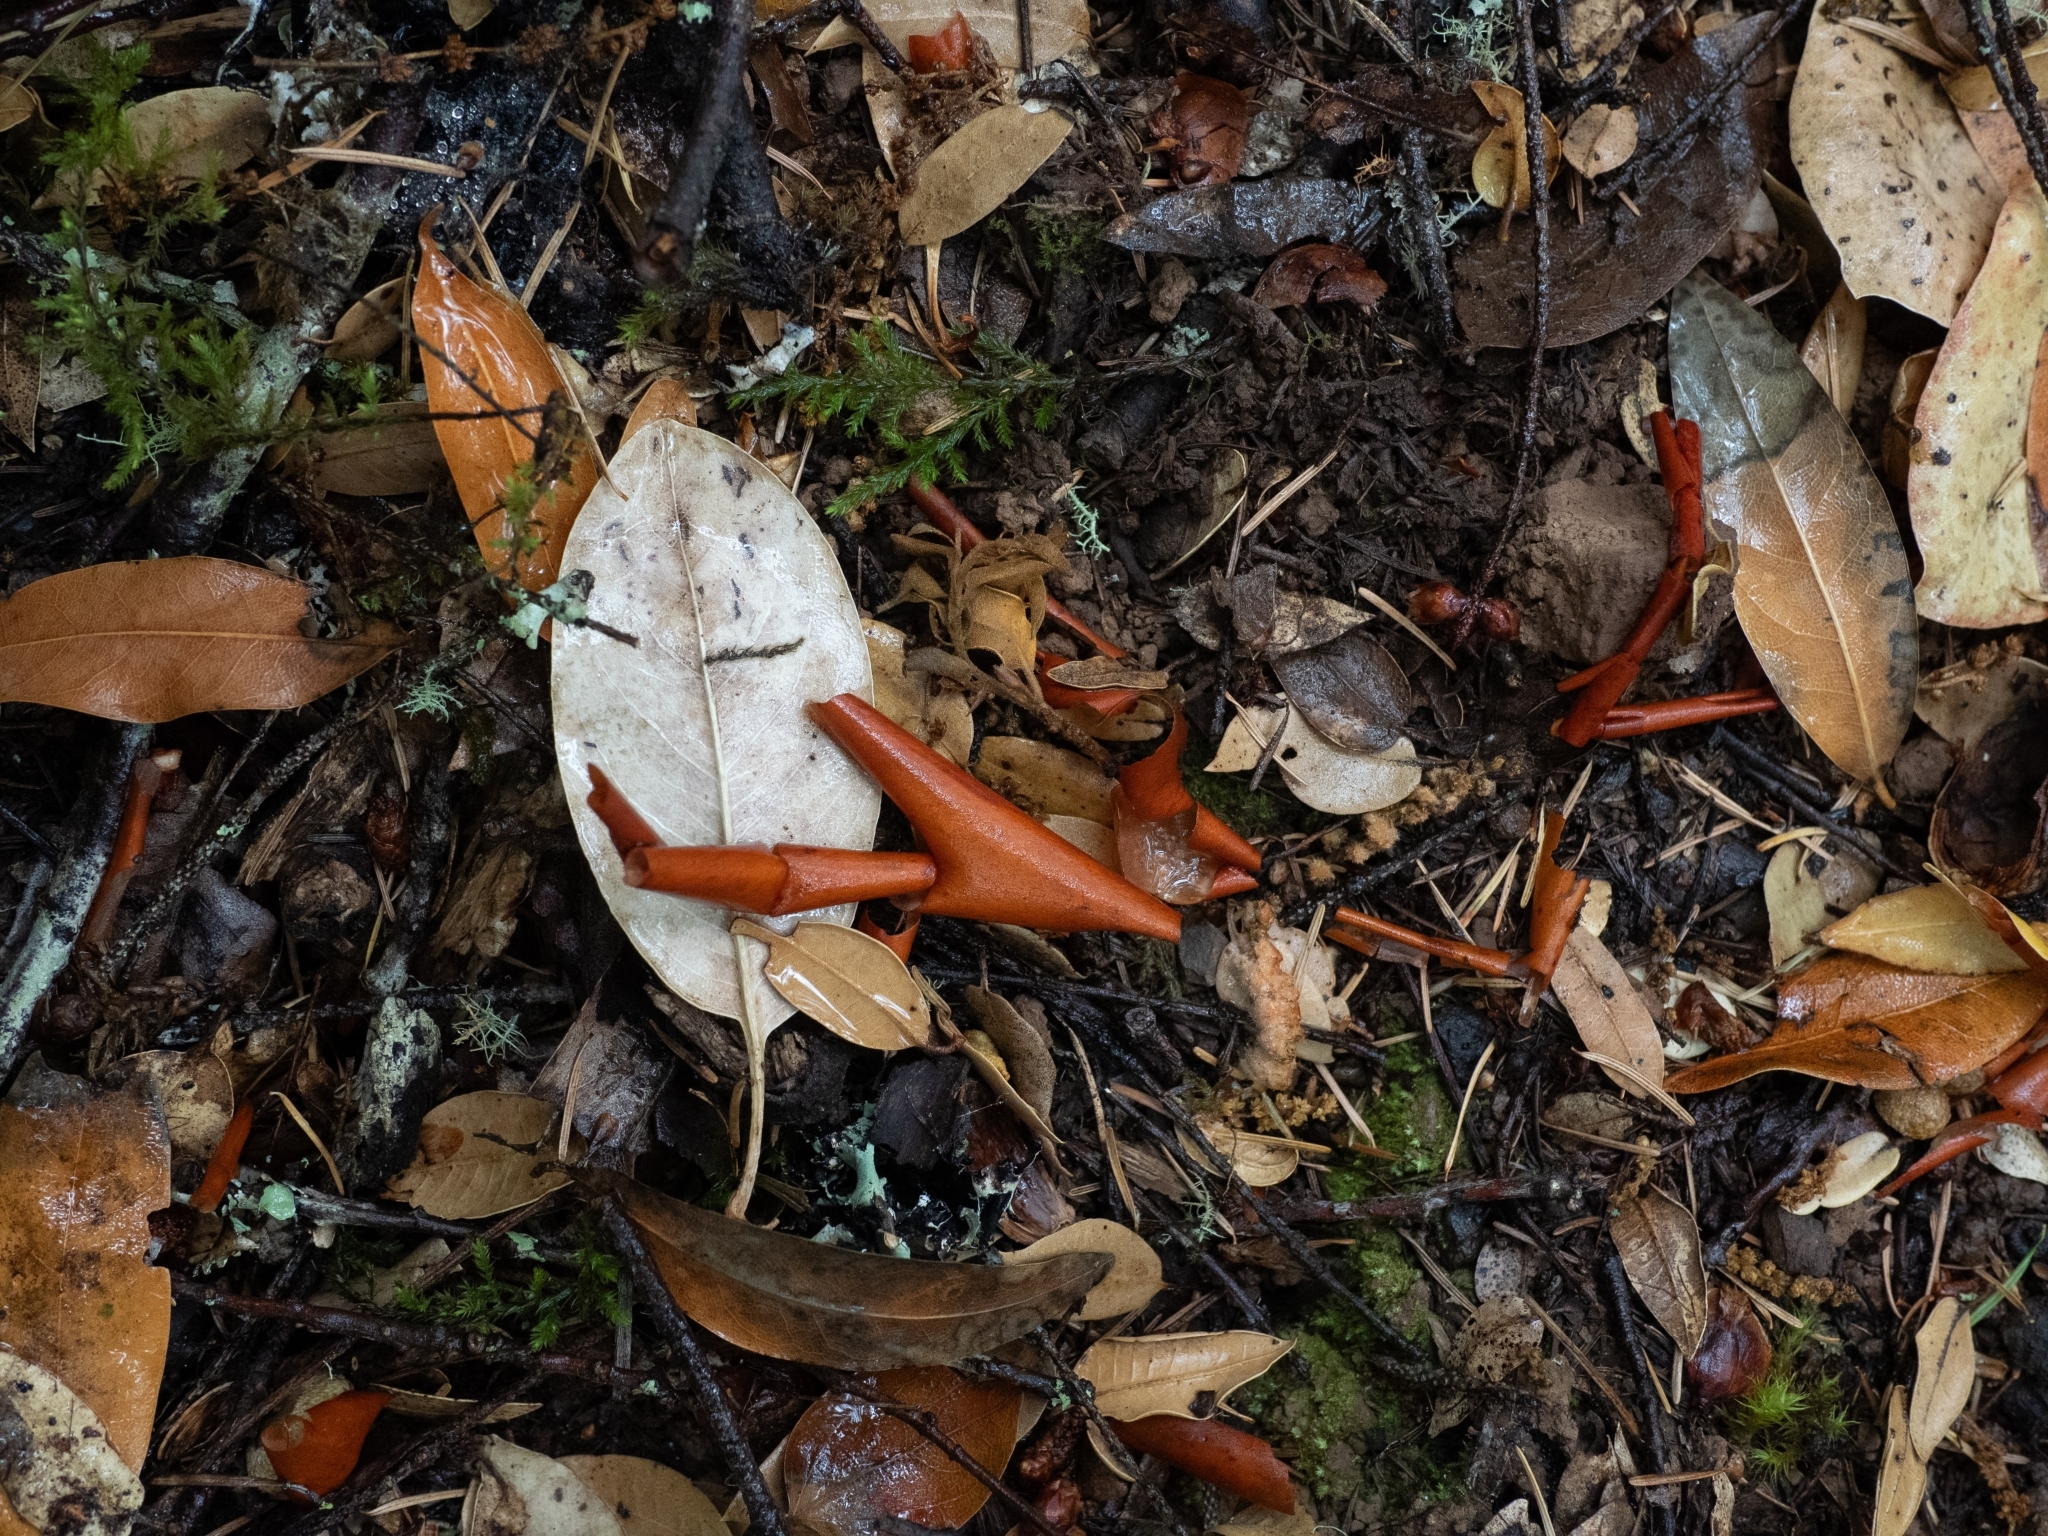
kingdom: Plantae
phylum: Tracheophyta
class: Magnoliopsida
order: Ericales
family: Ericaceae
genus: Arbutus
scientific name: Arbutus menziesii
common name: Pacific madrone
